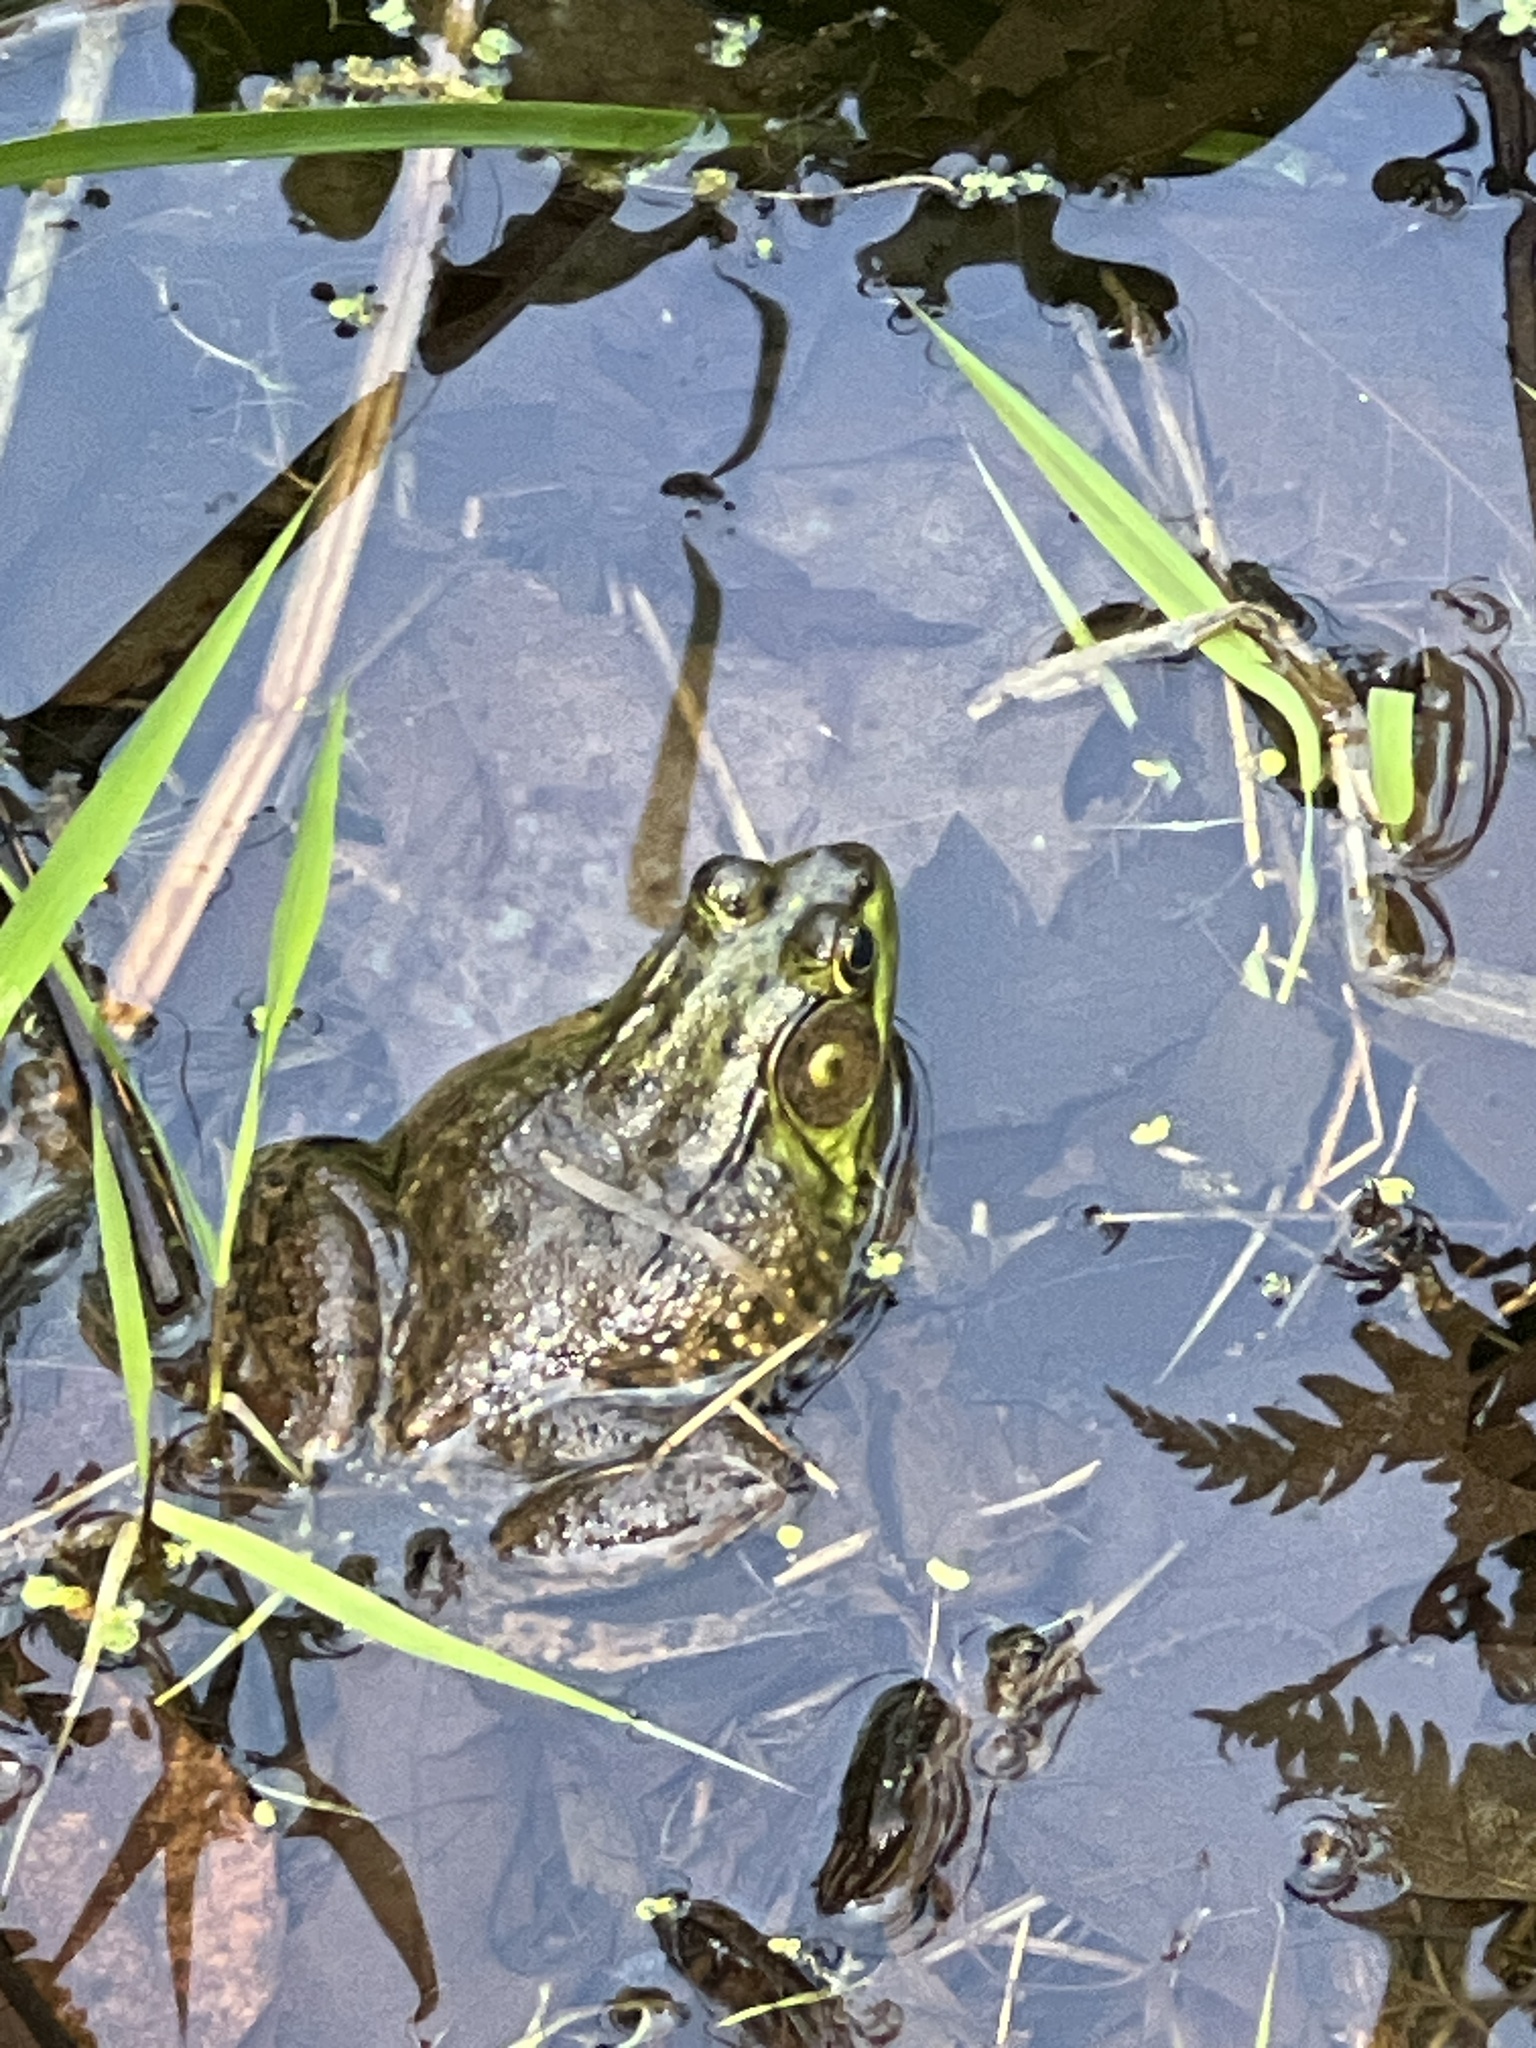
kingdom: Animalia
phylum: Chordata
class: Amphibia
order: Anura
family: Ranidae
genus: Lithobates
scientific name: Lithobates clamitans
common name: Green frog
